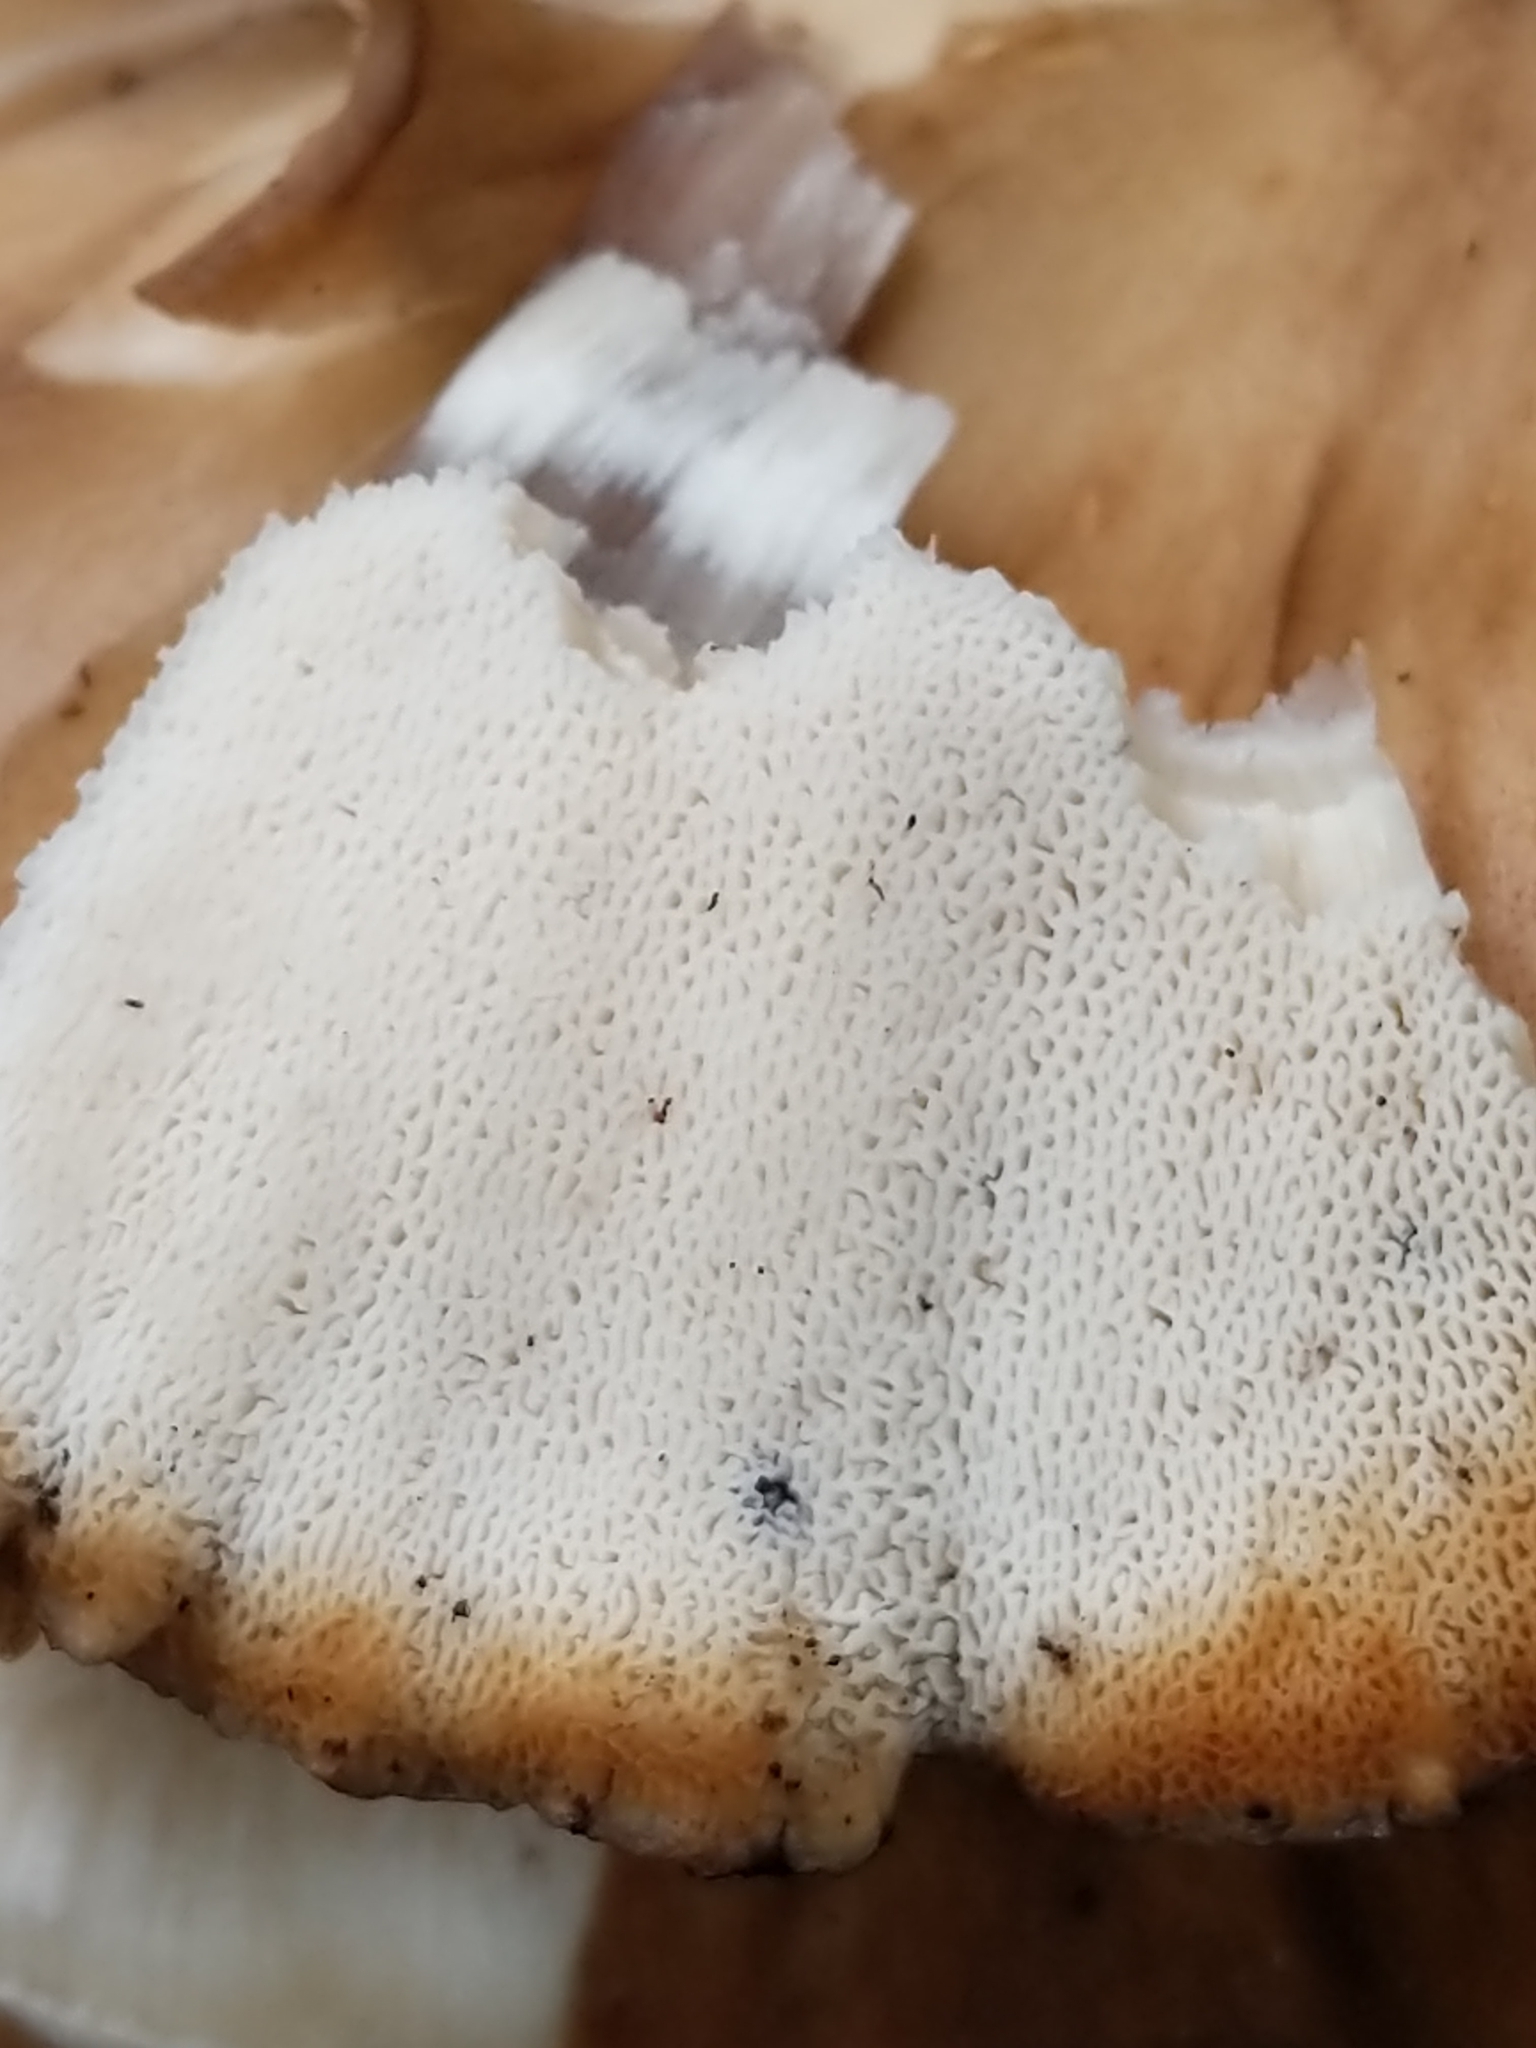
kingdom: Fungi
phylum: Basidiomycota
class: Agaricomycetes
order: Polyporales
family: Grifolaceae
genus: Grifola
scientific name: Grifola frondosa
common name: Hen of the woods
